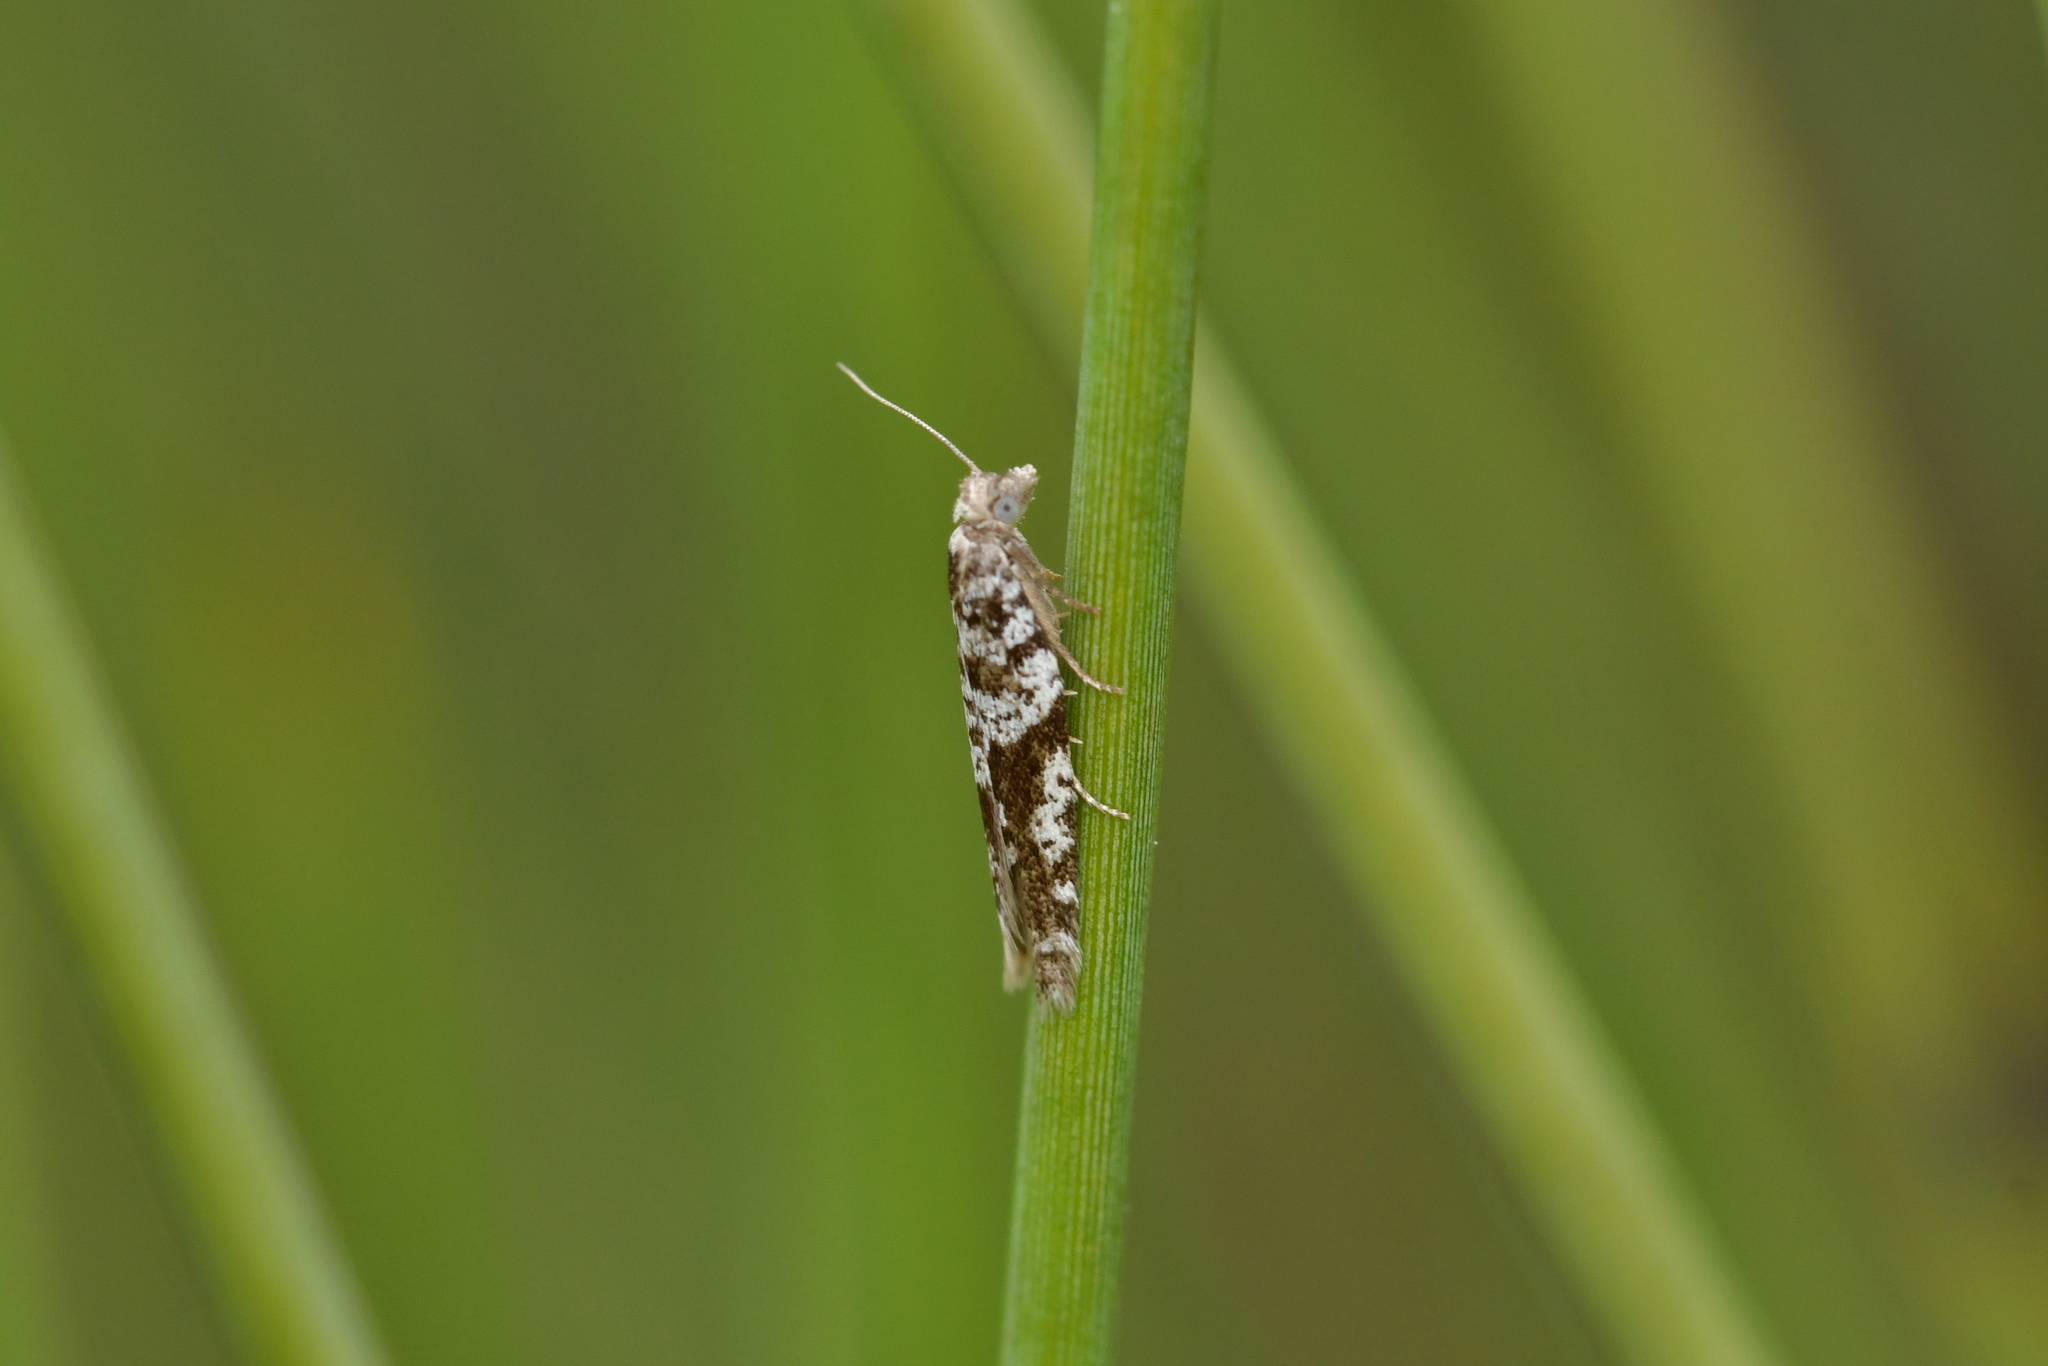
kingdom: Animalia
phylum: Arthropoda
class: Insecta
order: Lepidoptera
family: Tortricidae
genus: Ericodesma
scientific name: Ericodesma scruposa
